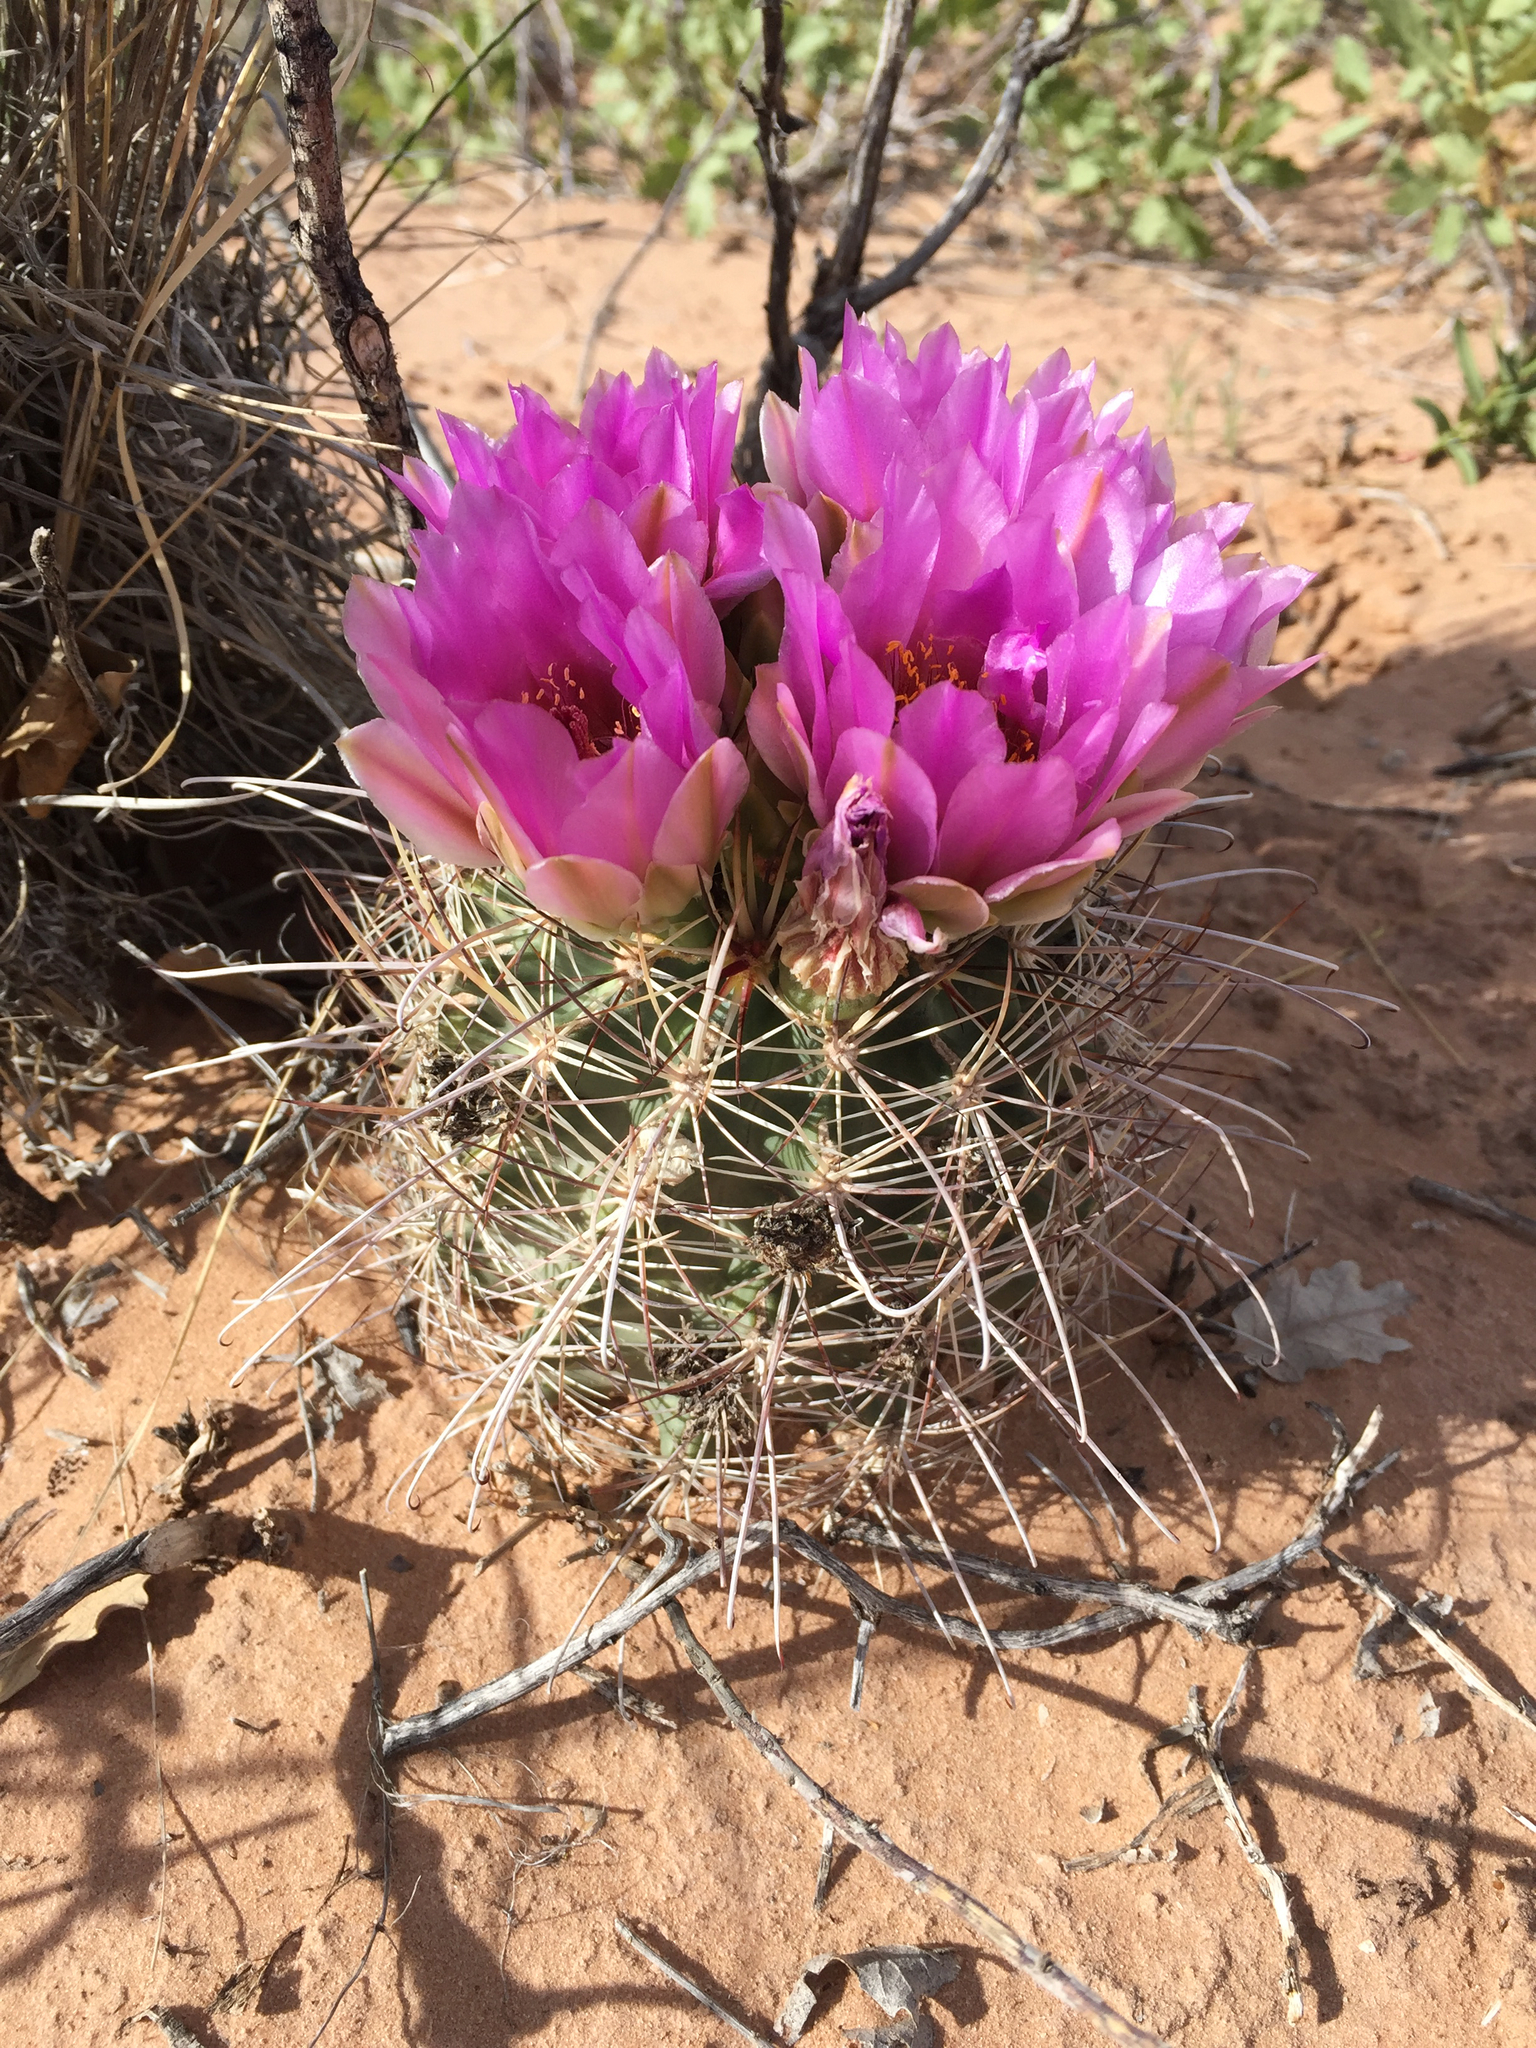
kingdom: Plantae
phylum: Tracheophyta
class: Magnoliopsida
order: Caryophyllales
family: Cactaceae
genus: Sclerocactus
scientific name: Sclerocactus parviflorus
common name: Small-flower fishhook cactus
